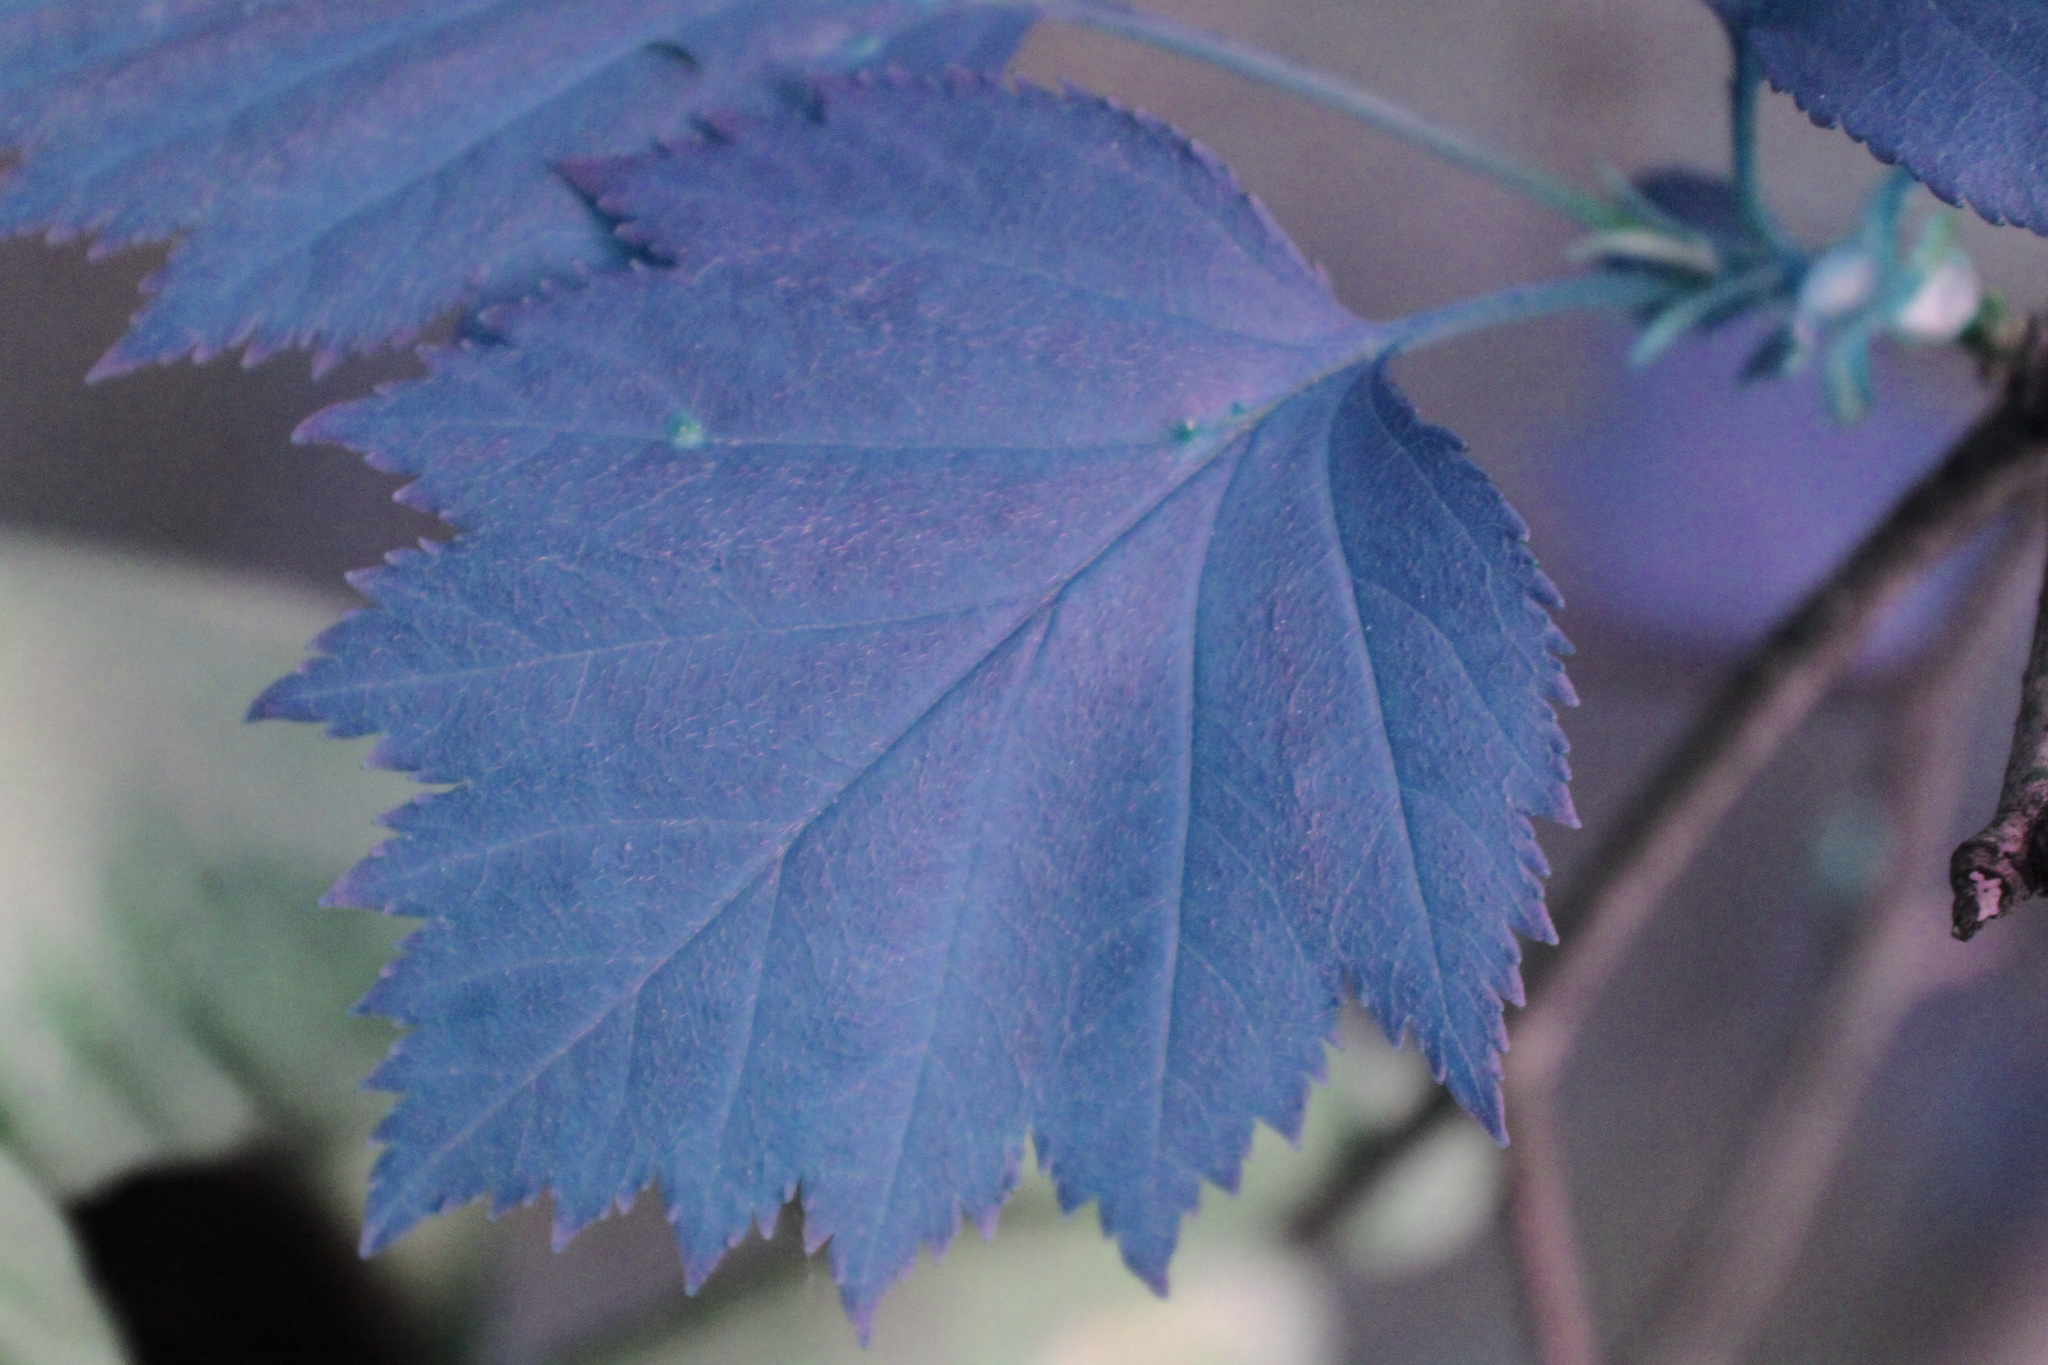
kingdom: Plantae
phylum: Tracheophyta
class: Magnoliopsida
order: Rosales
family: Rosaceae
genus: Crataegus
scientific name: Crataegus flabellata
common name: Bosc's hawthorn
